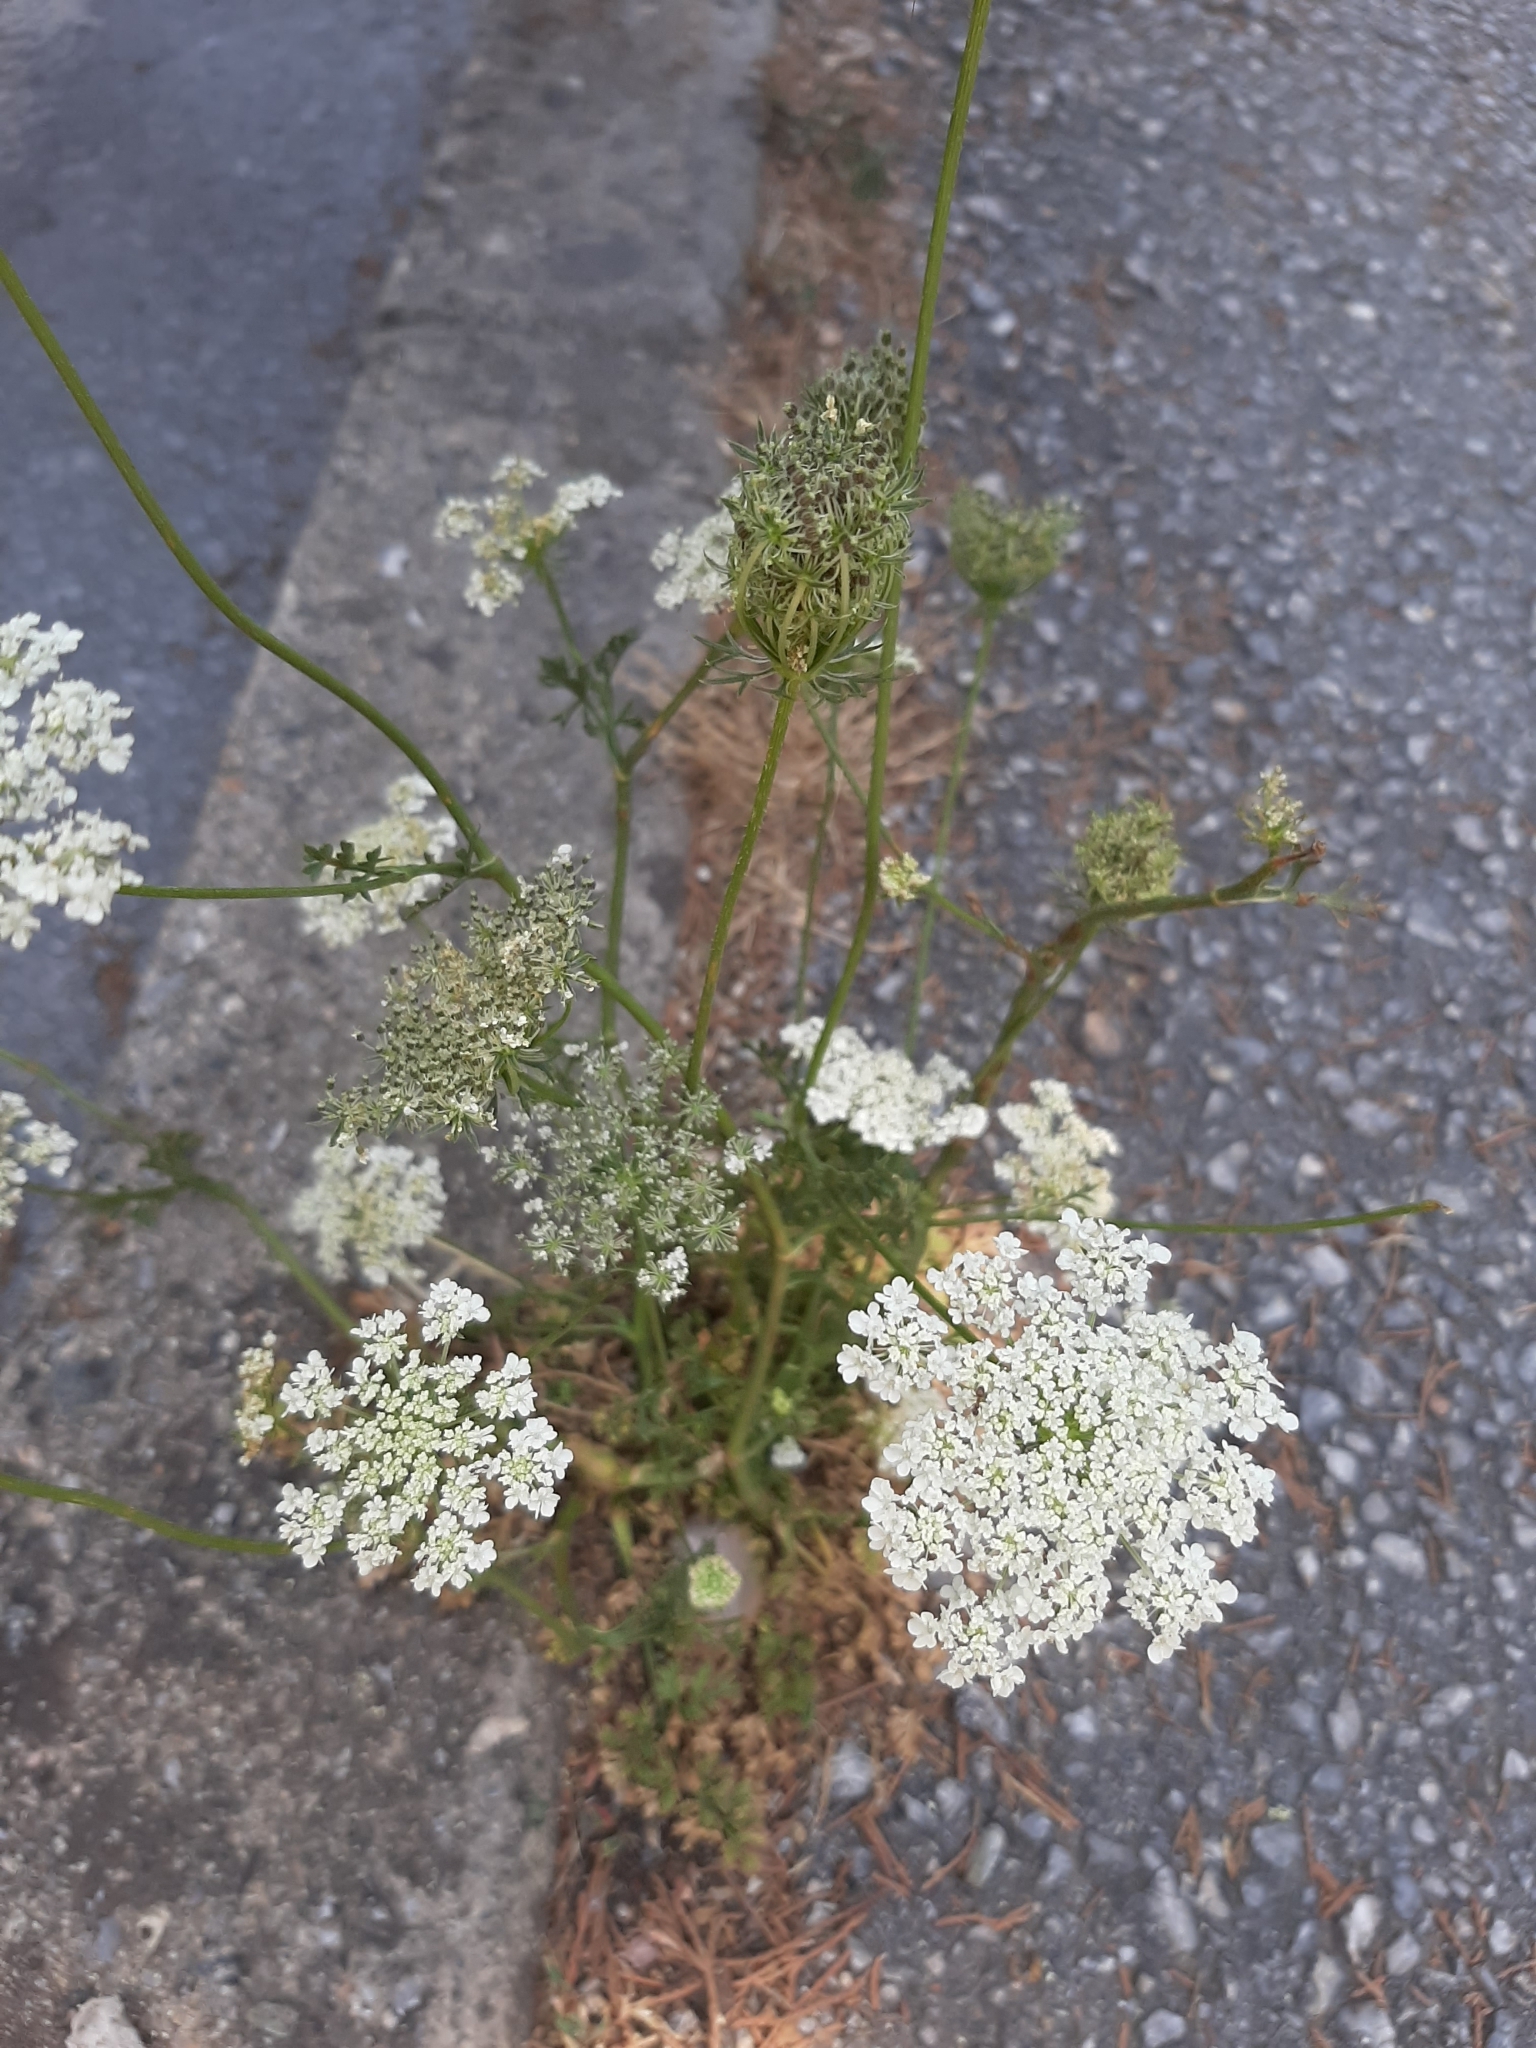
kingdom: Plantae
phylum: Tracheophyta
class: Magnoliopsida
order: Apiales
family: Apiaceae
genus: Daucus
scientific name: Daucus carota
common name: Wild carrot
